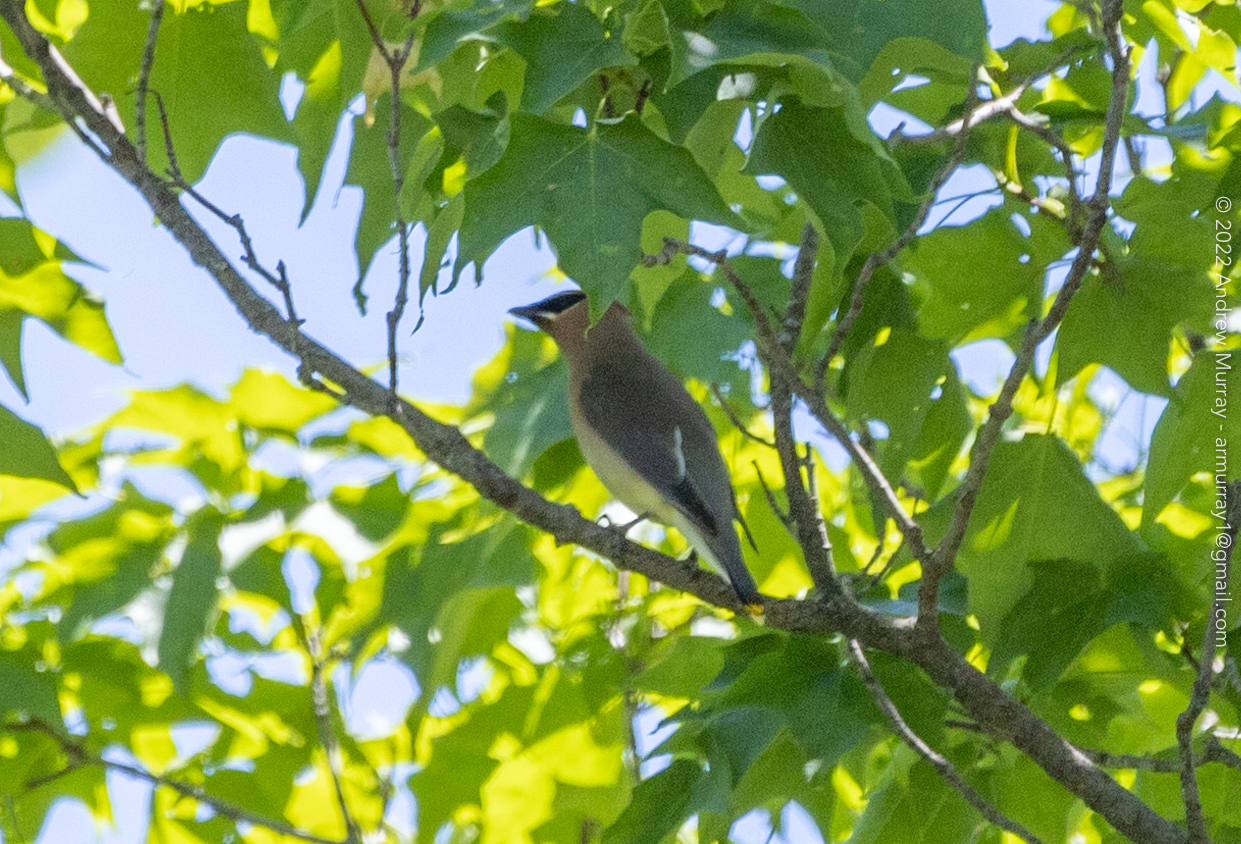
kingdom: Animalia
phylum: Chordata
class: Aves
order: Passeriformes
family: Bombycillidae
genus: Bombycilla
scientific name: Bombycilla cedrorum
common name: Cedar waxwing
